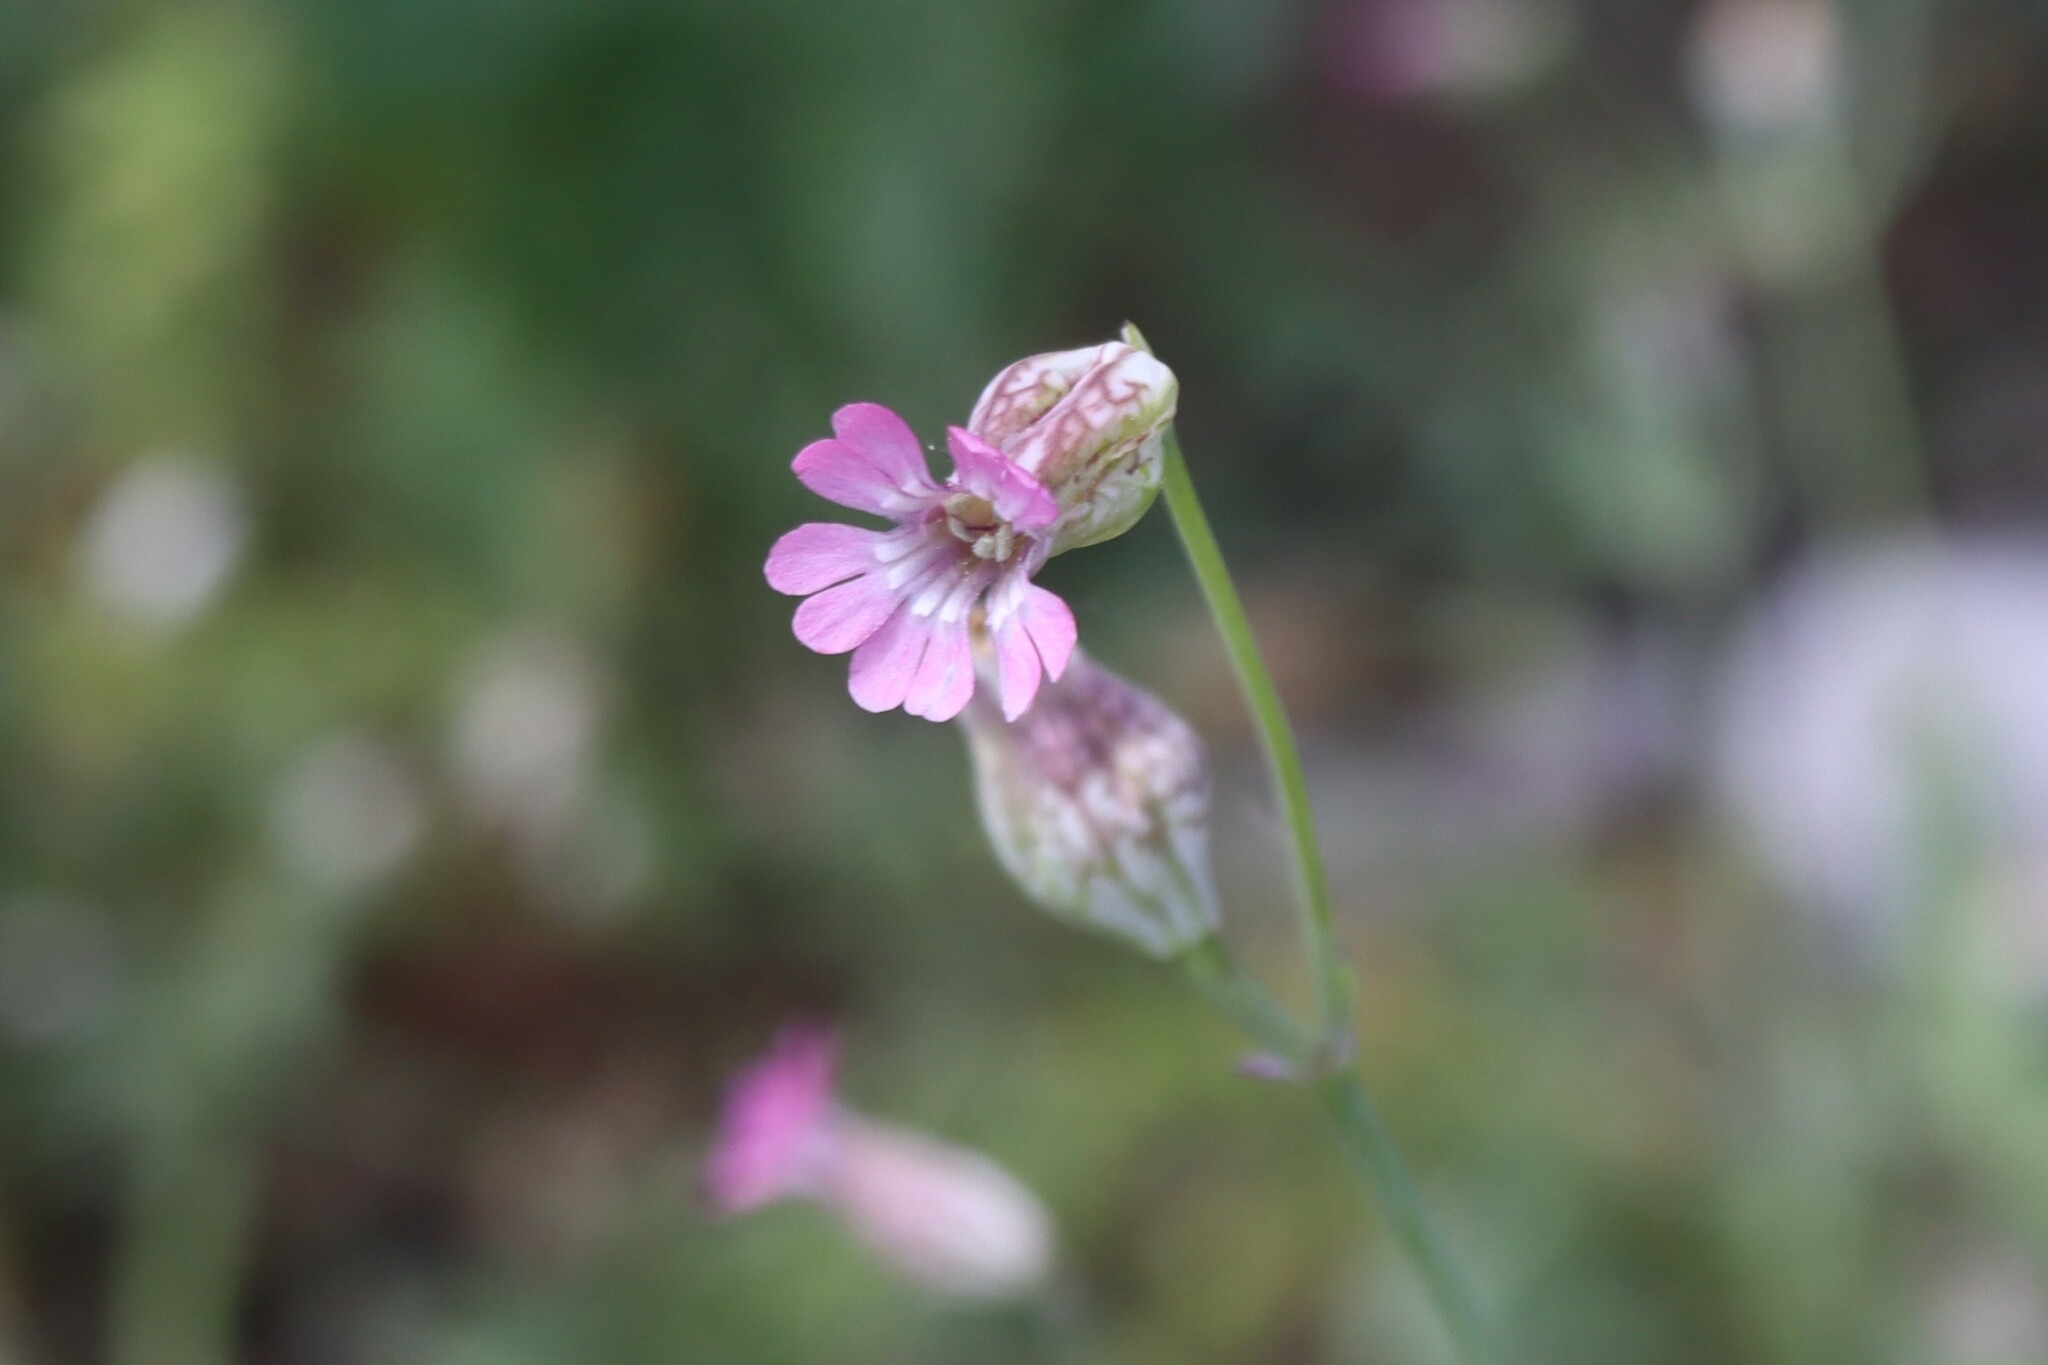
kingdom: Plantae
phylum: Tracheophyta
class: Magnoliopsida
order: Caryophyllales
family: Caryophyllaceae
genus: Silene
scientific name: Silene behen
